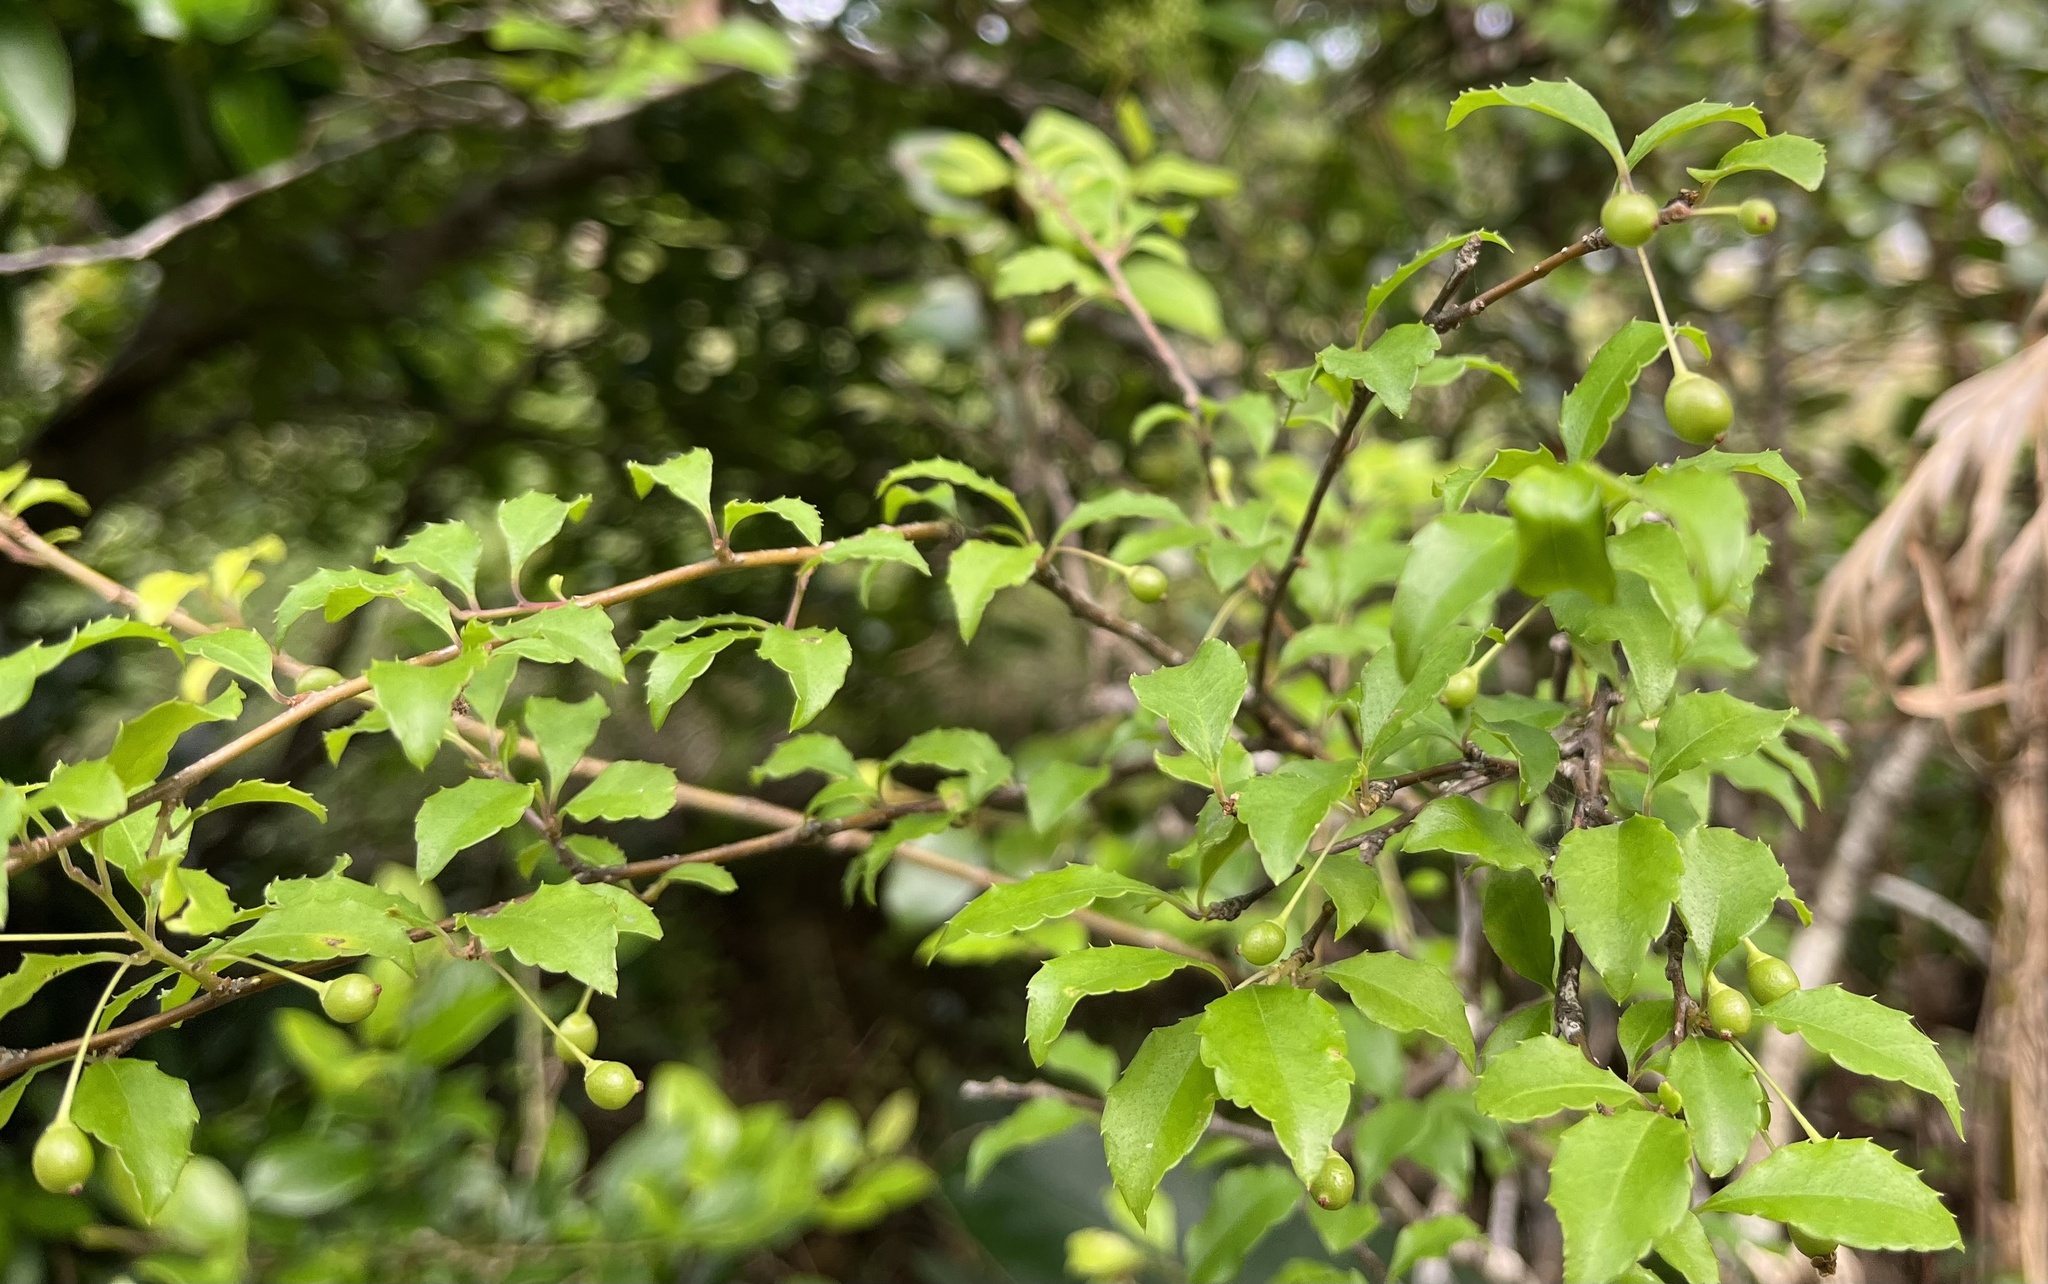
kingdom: Plantae
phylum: Tracheophyta
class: Magnoliopsida
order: Aquifoliales
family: Aquifoliaceae
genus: Ilex
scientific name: Ilex asprella
